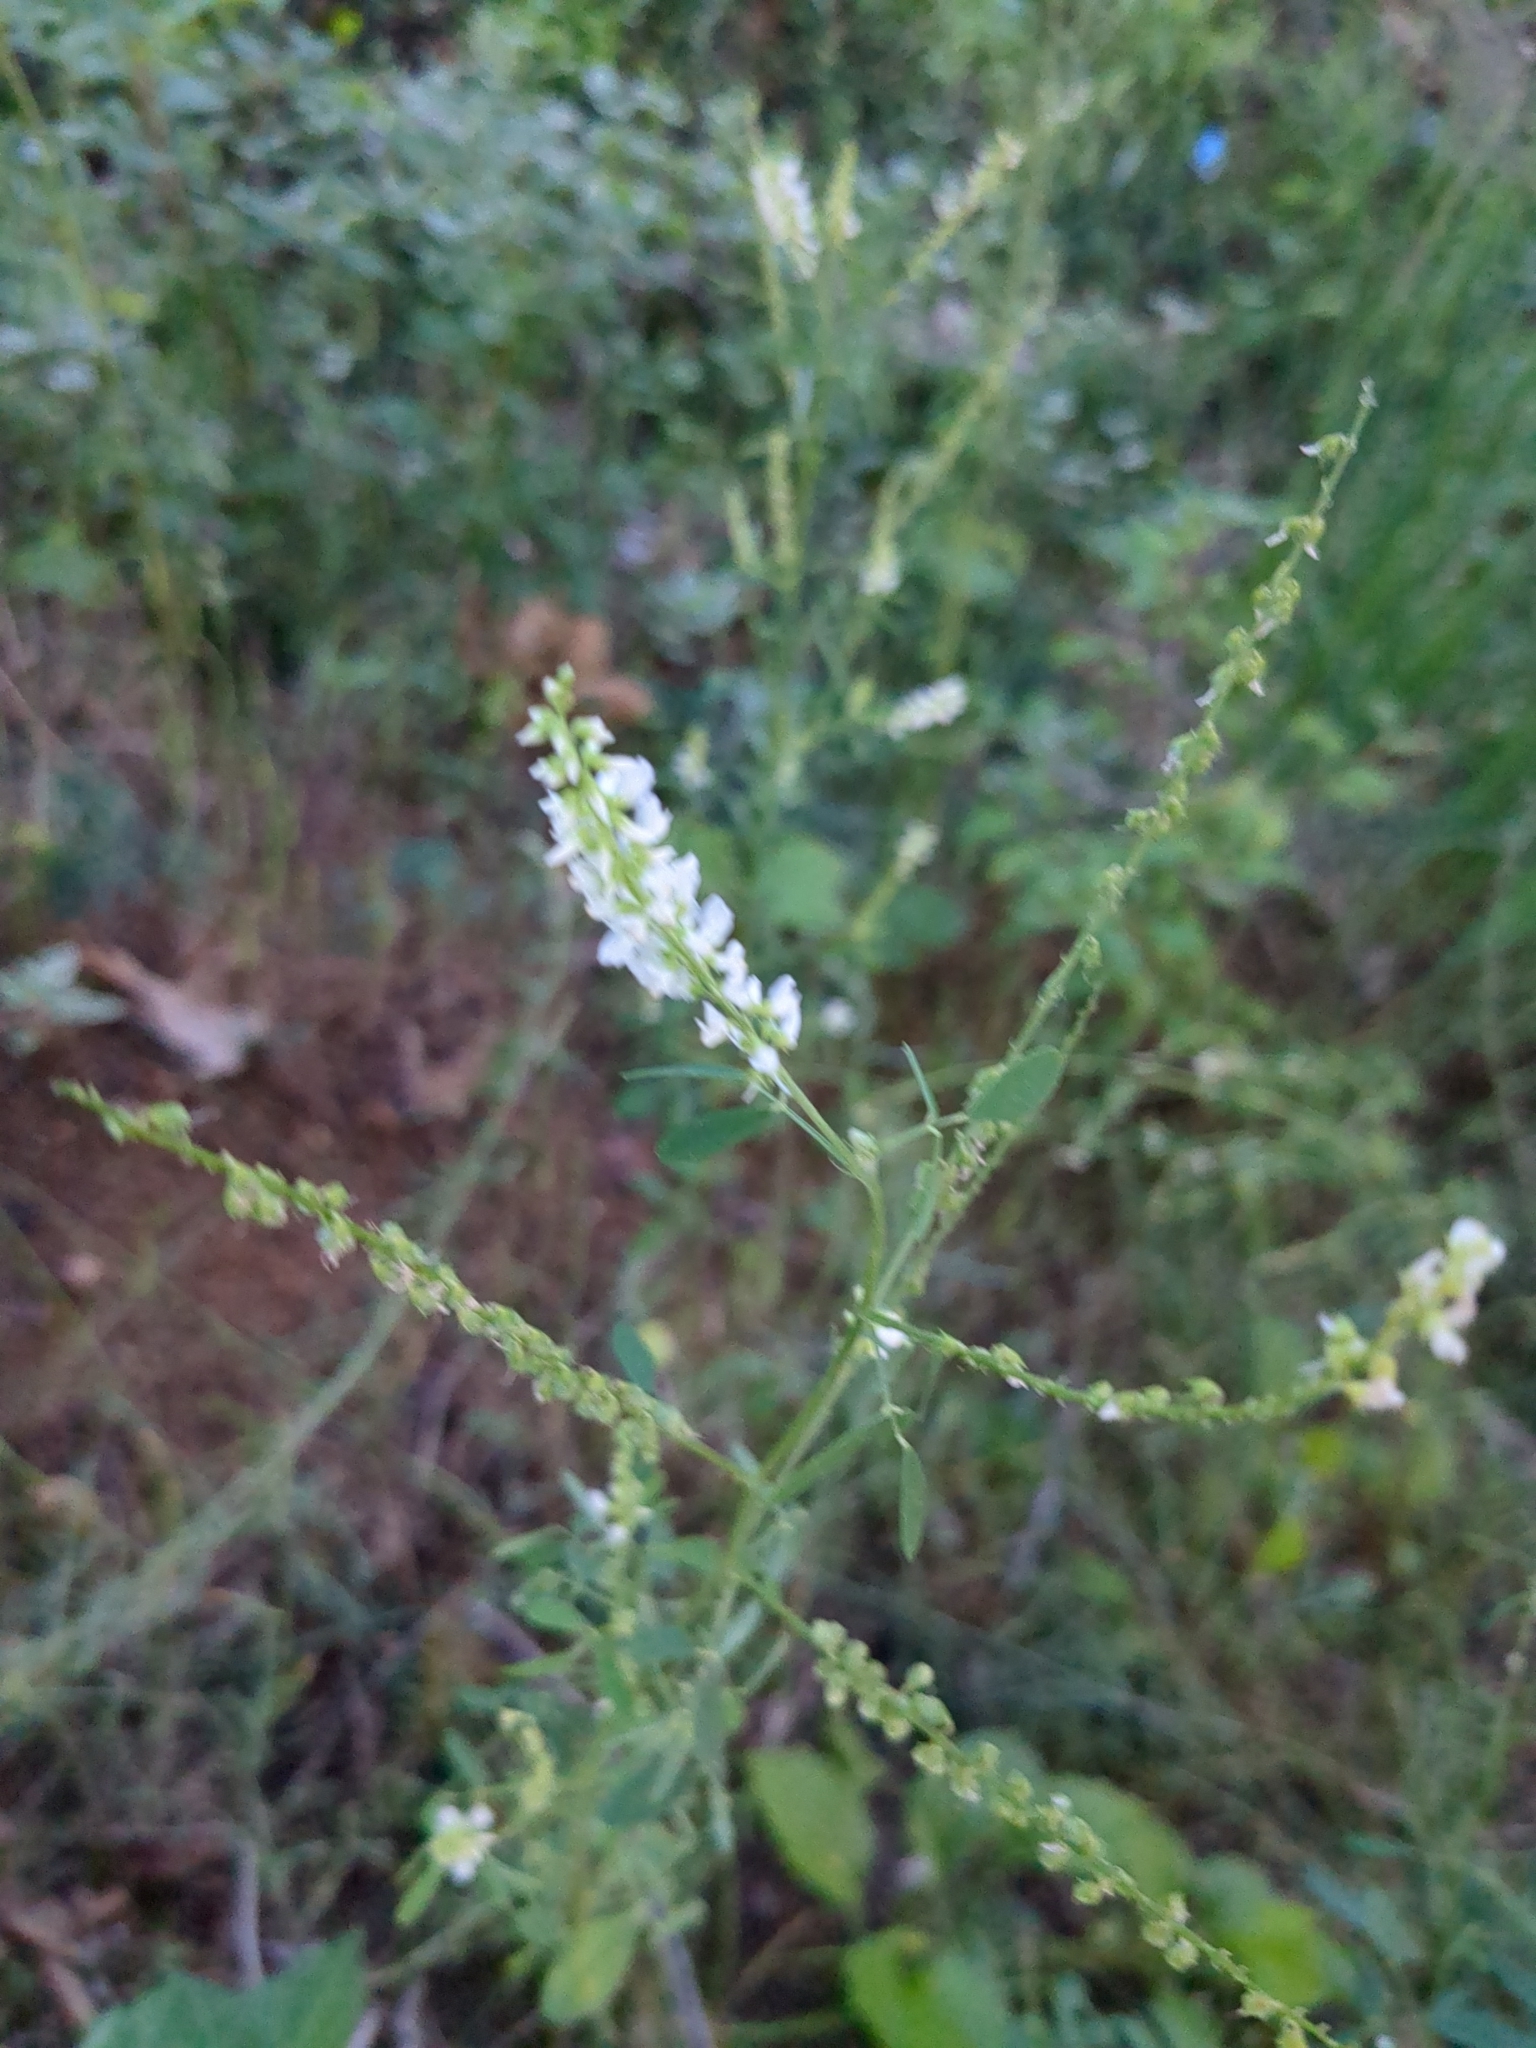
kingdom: Plantae
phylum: Tracheophyta
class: Magnoliopsida
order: Fabales
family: Fabaceae
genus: Melilotus
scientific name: Melilotus albus
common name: White melilot
